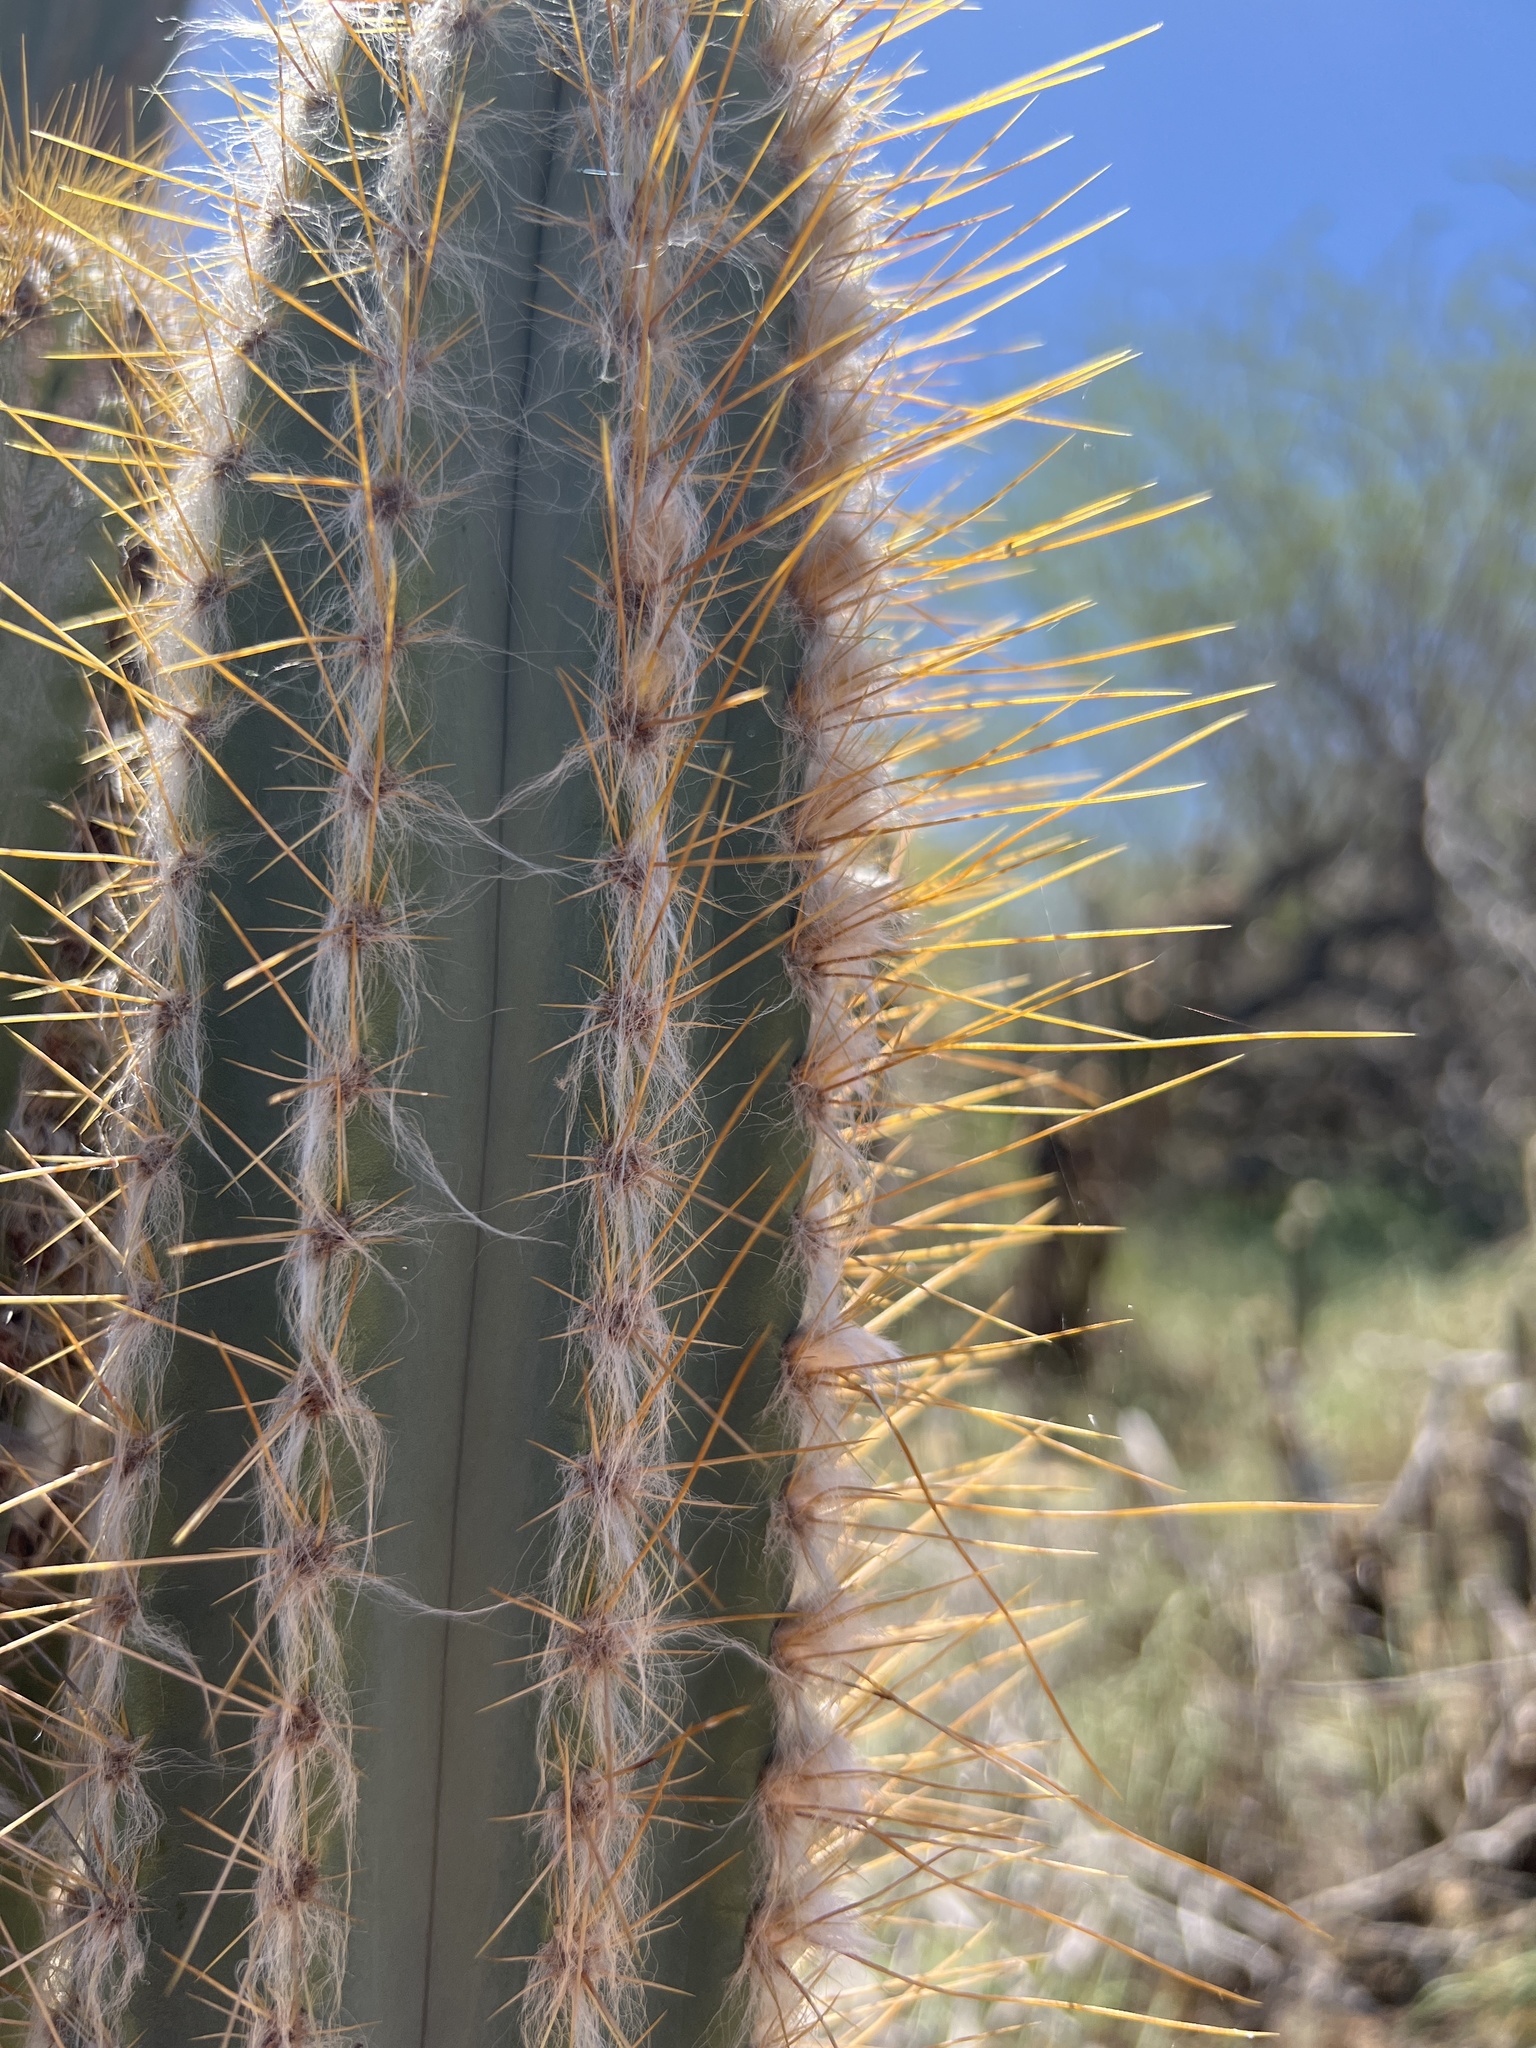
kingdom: Plantae
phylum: Tracheophyta
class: Magnoliopsida
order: Caryophyllales
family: Cactaceae
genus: Pilosocereus
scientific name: Pilosocereus armatus
